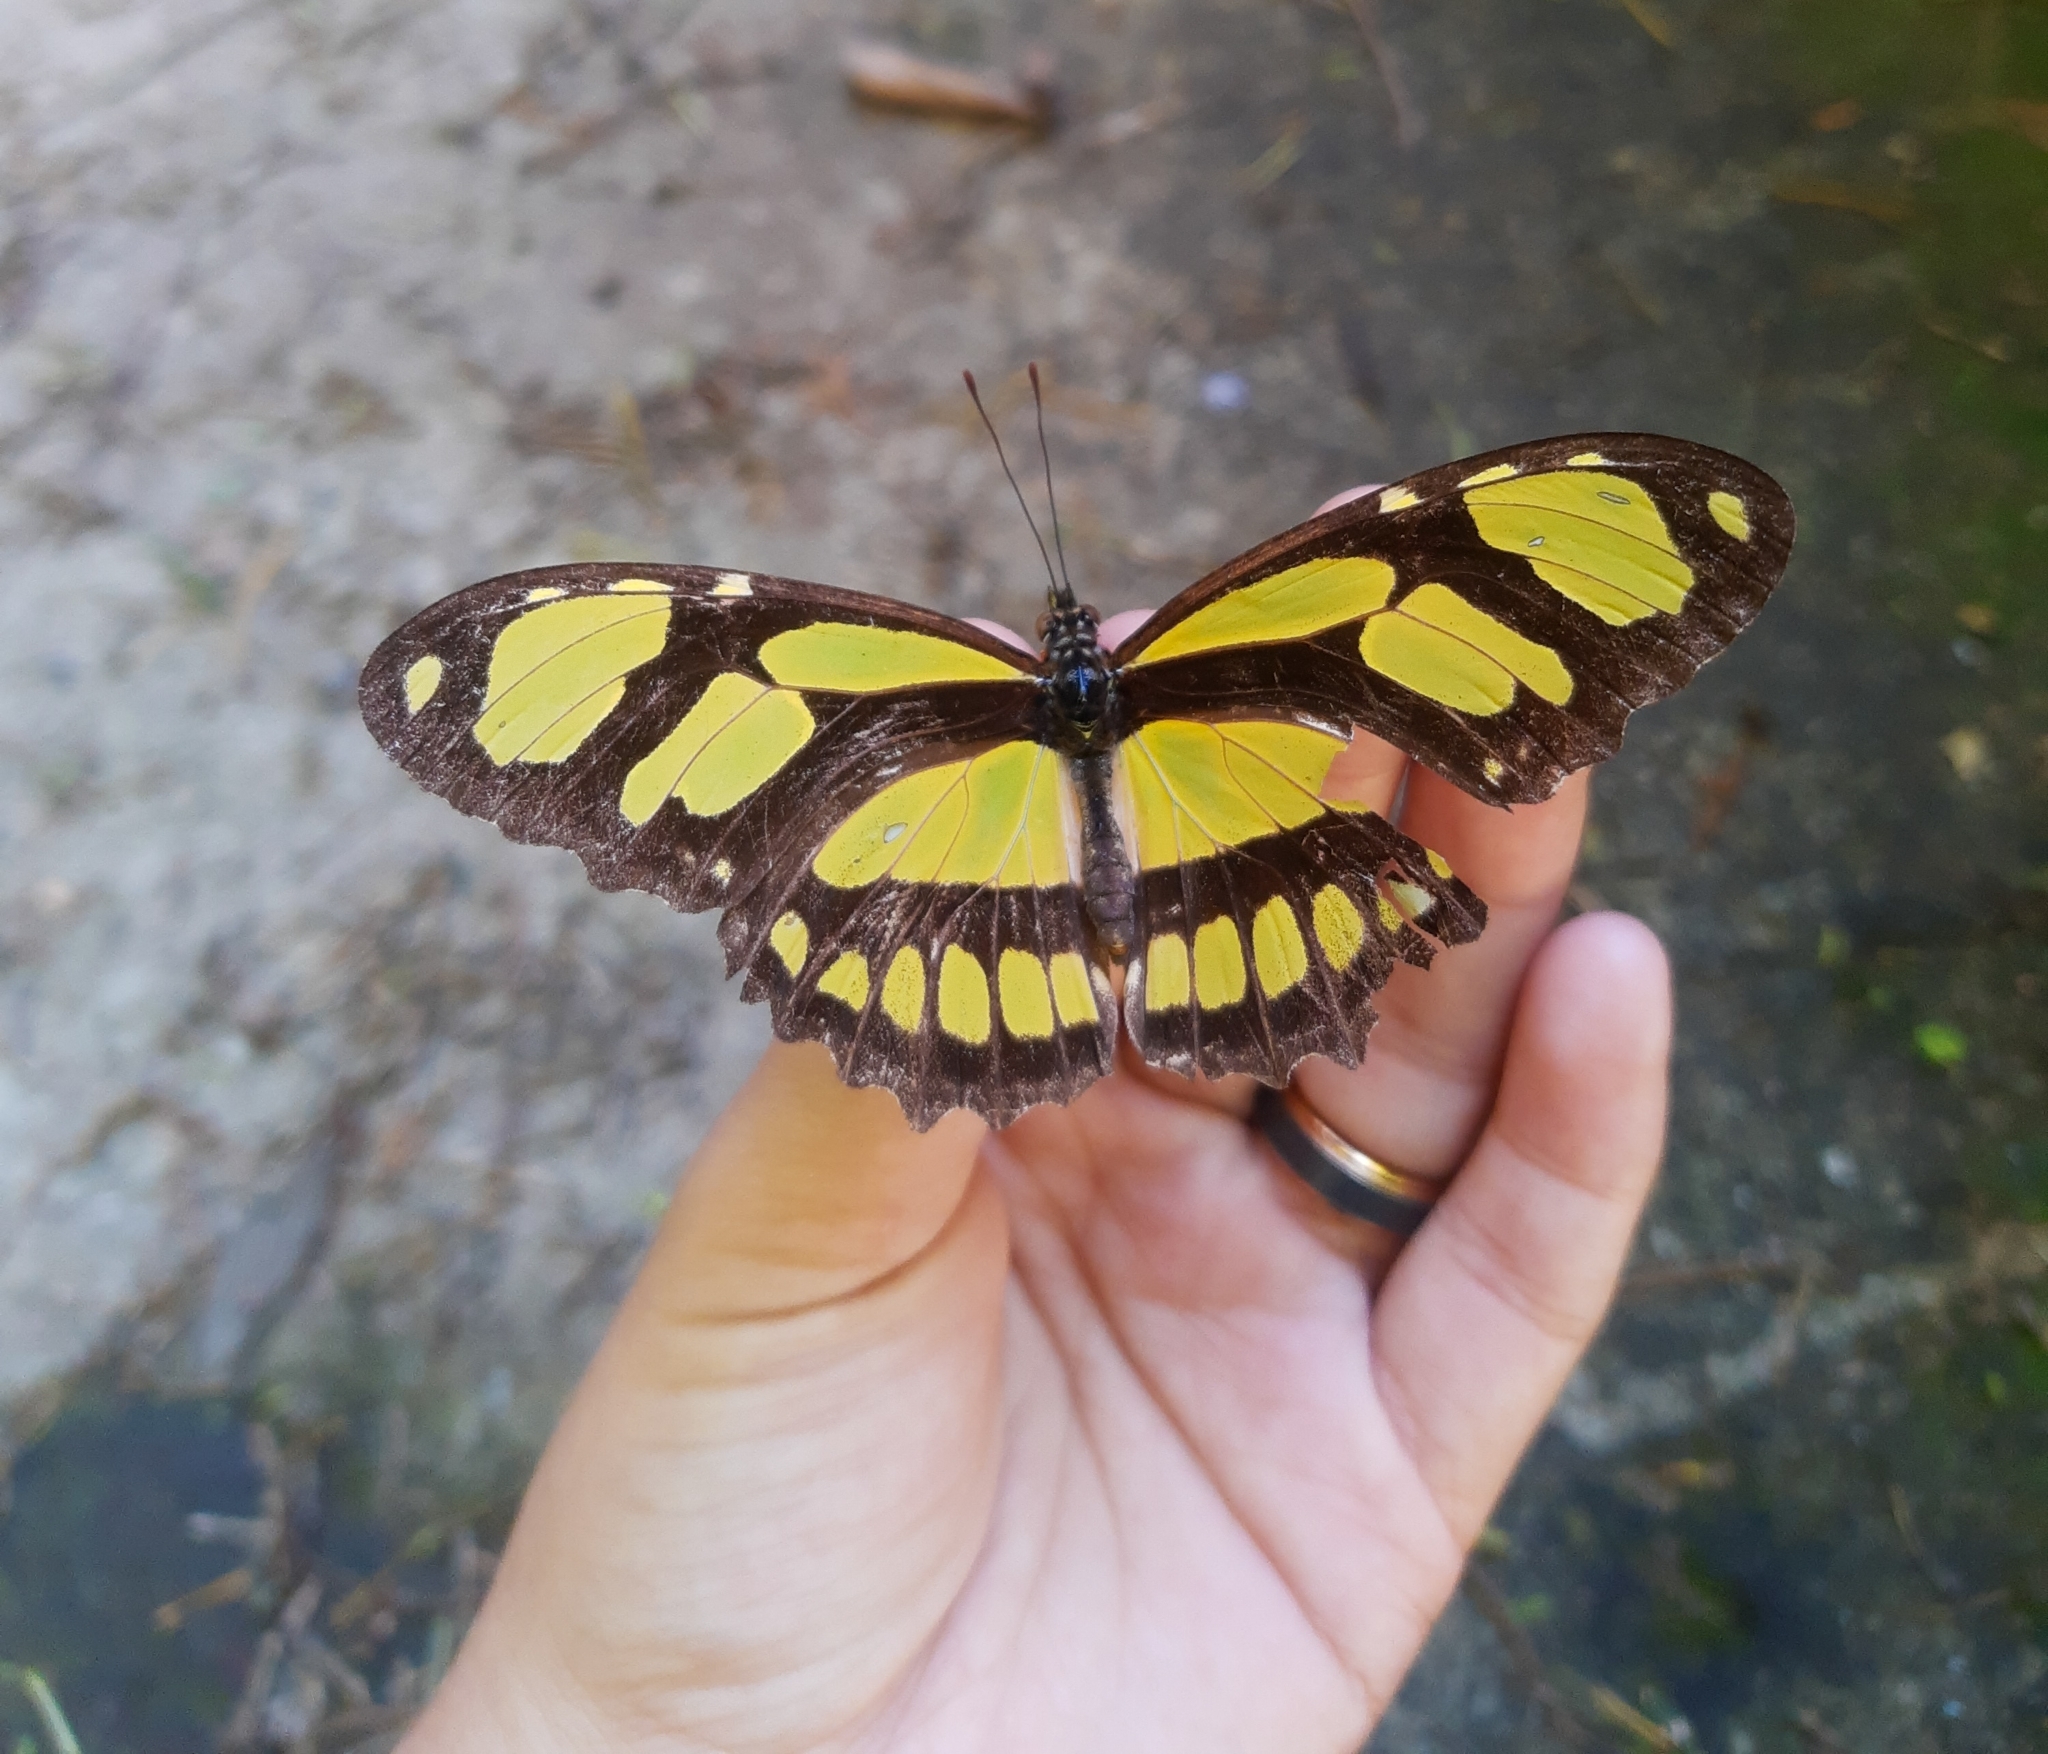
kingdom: Animalia
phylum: Arthropoda
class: Insecta
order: Lepidoptera
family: Nymphalidae
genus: Philaethria
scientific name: Philaethria dido
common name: Scarce bamboo page
